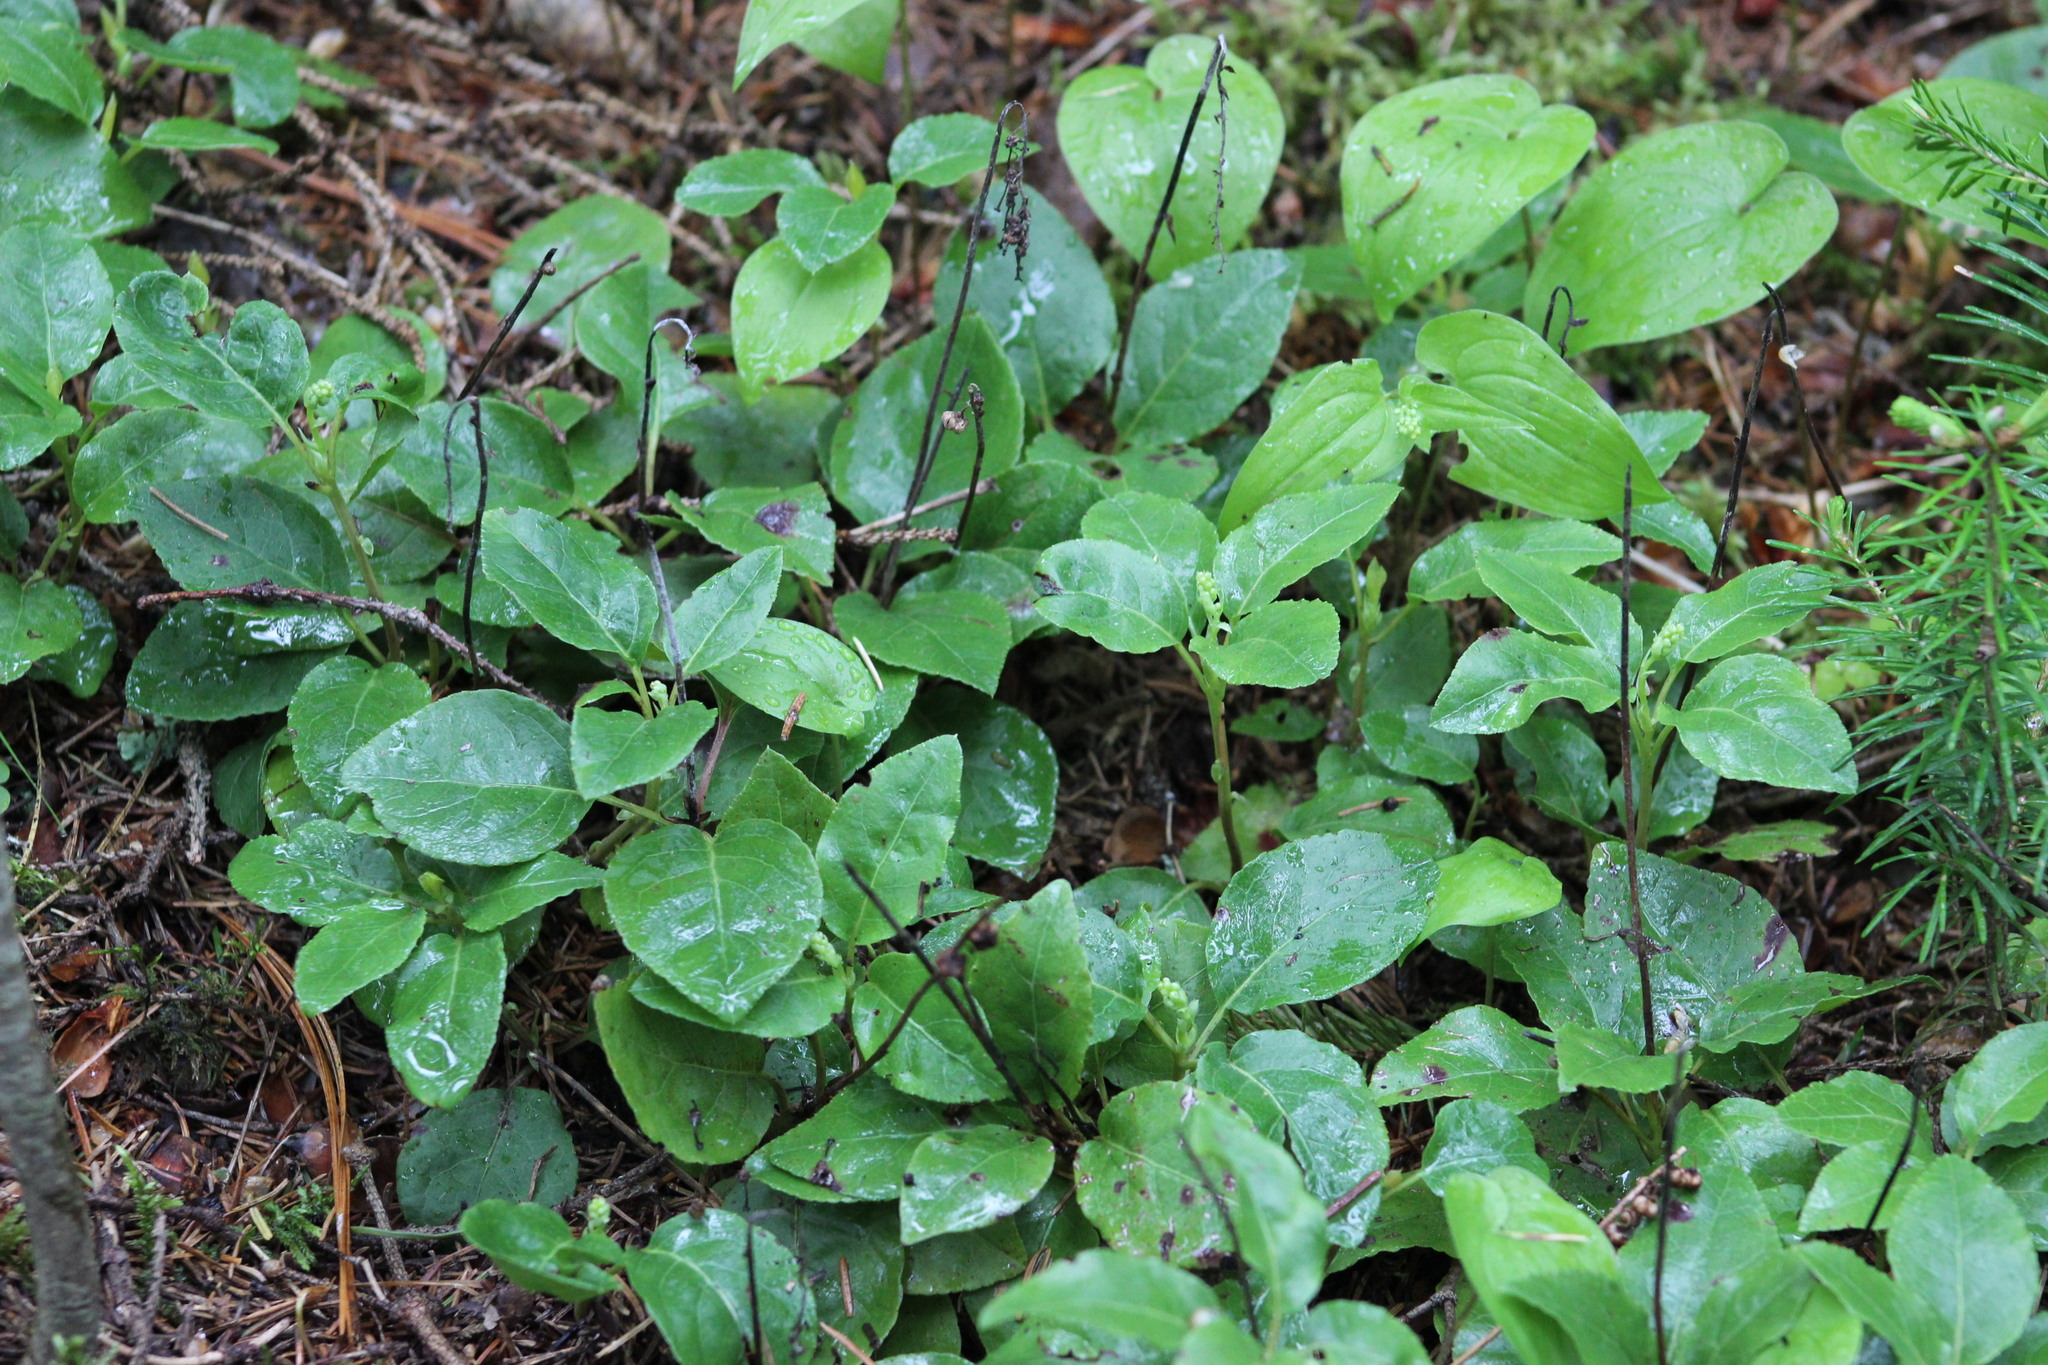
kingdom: Plantae
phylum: Tracheophyta
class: Magnoliopsida
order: Ericales
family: Ericaceae
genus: Orthilia
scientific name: Orthilia secunda
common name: One-sided orthilia
